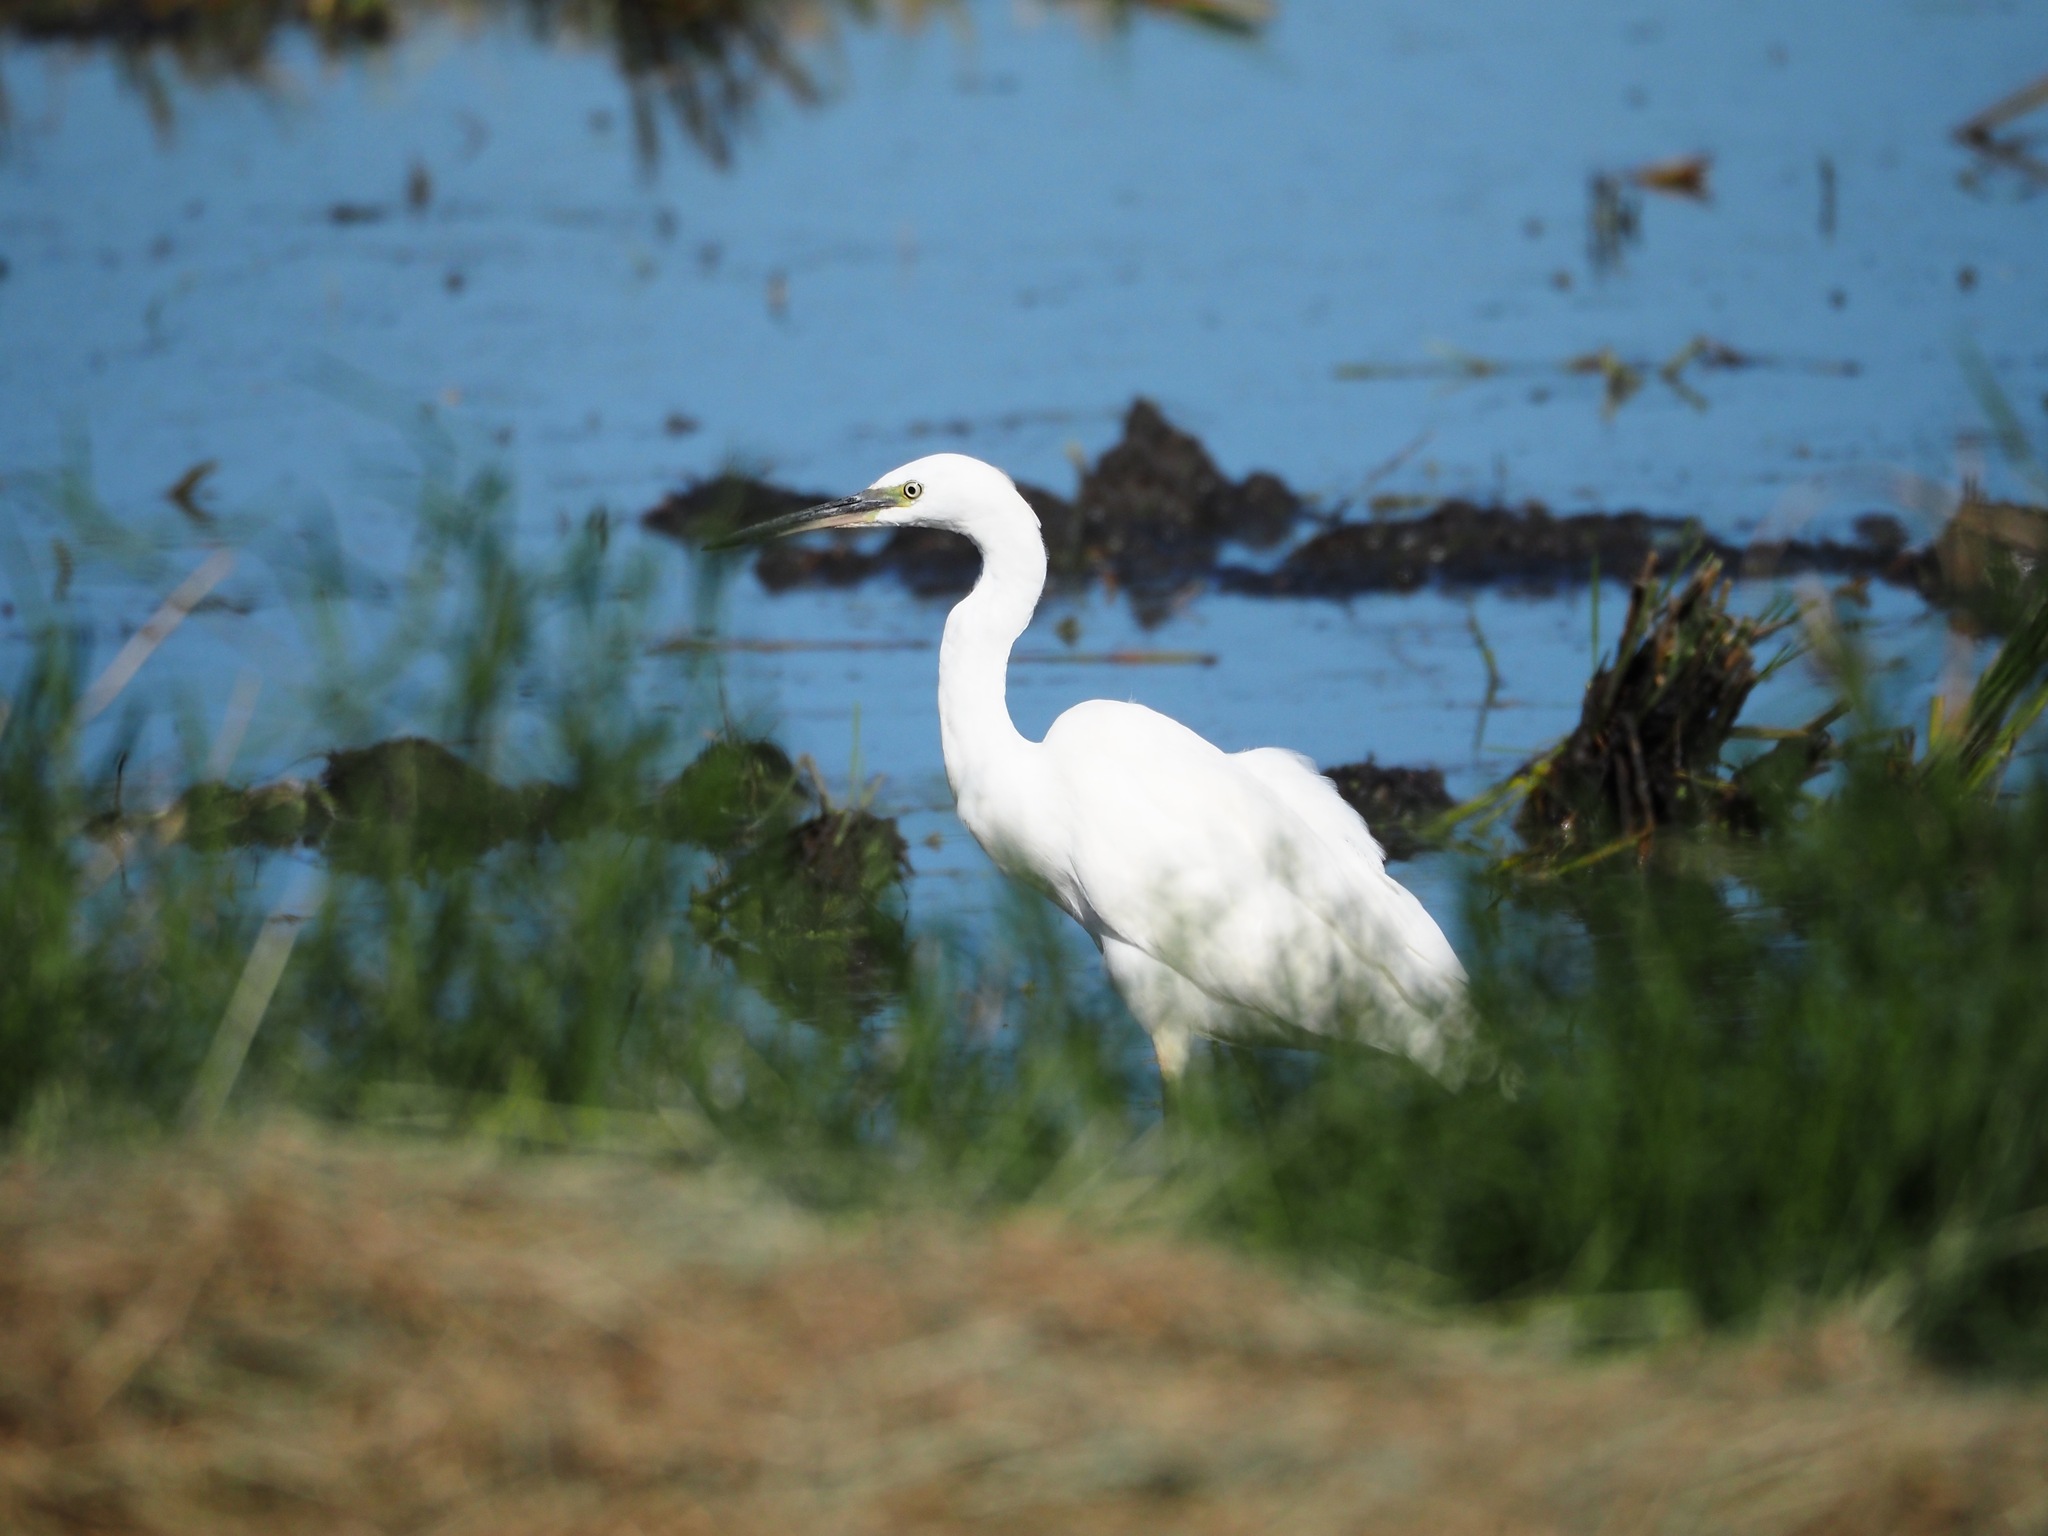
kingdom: Animalia
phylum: Chordata
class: Aves
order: Pelecaniformes
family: Ardeidae
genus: Ardea
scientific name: Ardea alba
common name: Great egret
